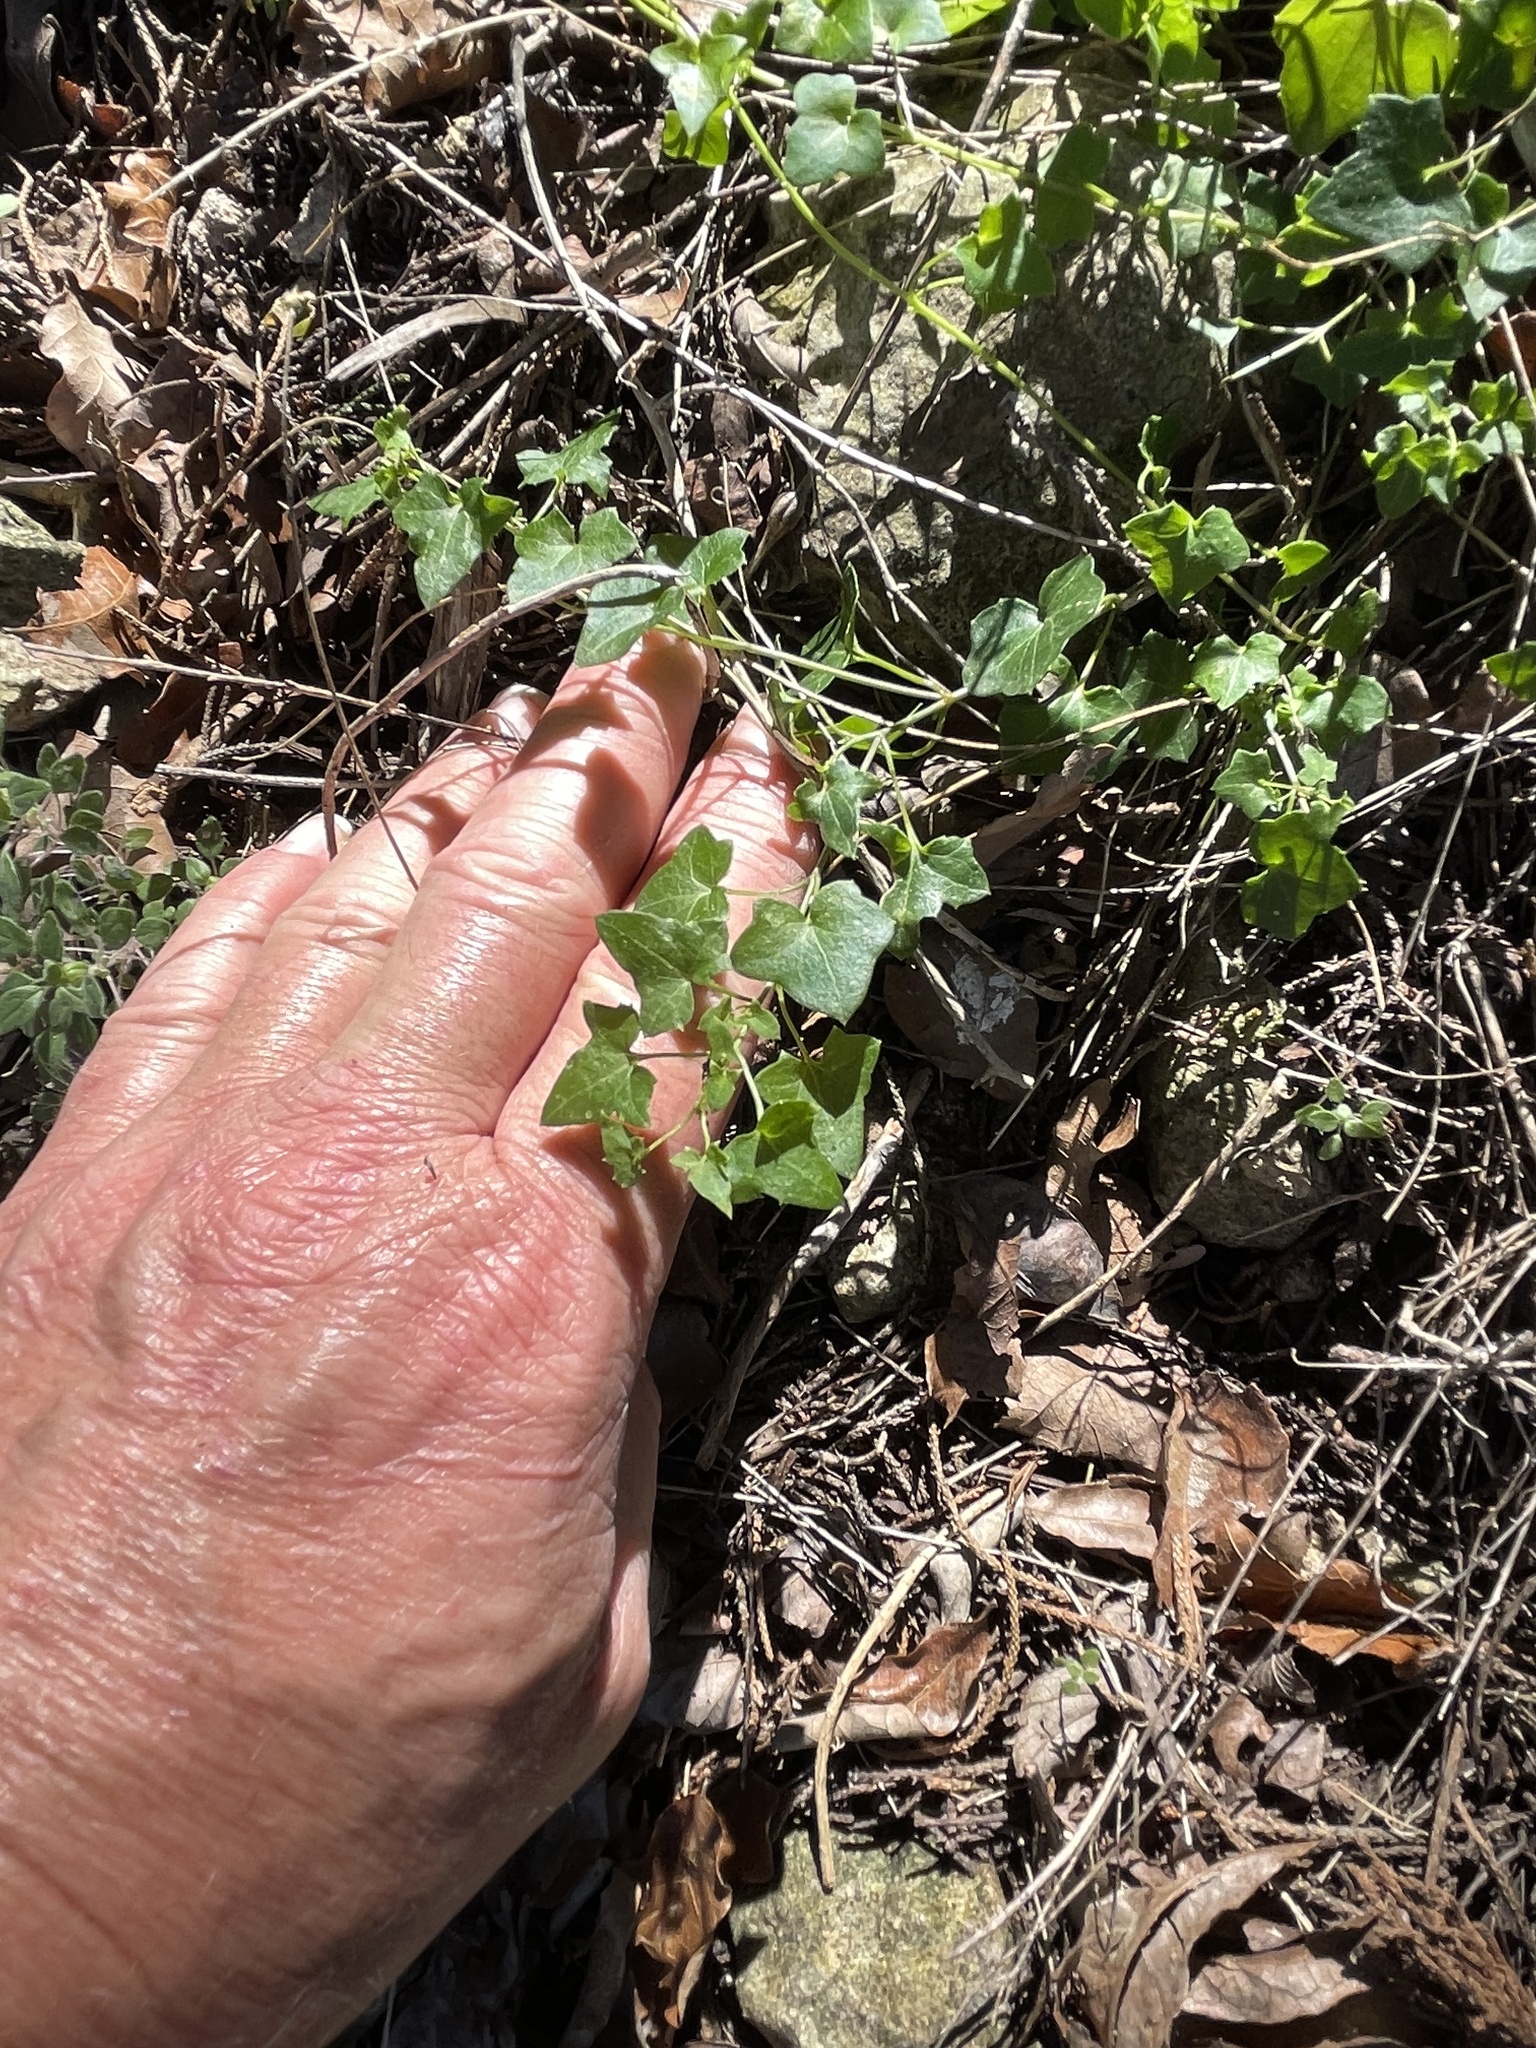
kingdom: Plantae
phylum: Tracheophyta
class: Magnoliopsida
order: Lamiales
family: Plantaginaceae
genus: Maurandella
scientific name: Maurandella antirrhiniflora
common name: Violet twining-snapdragon
